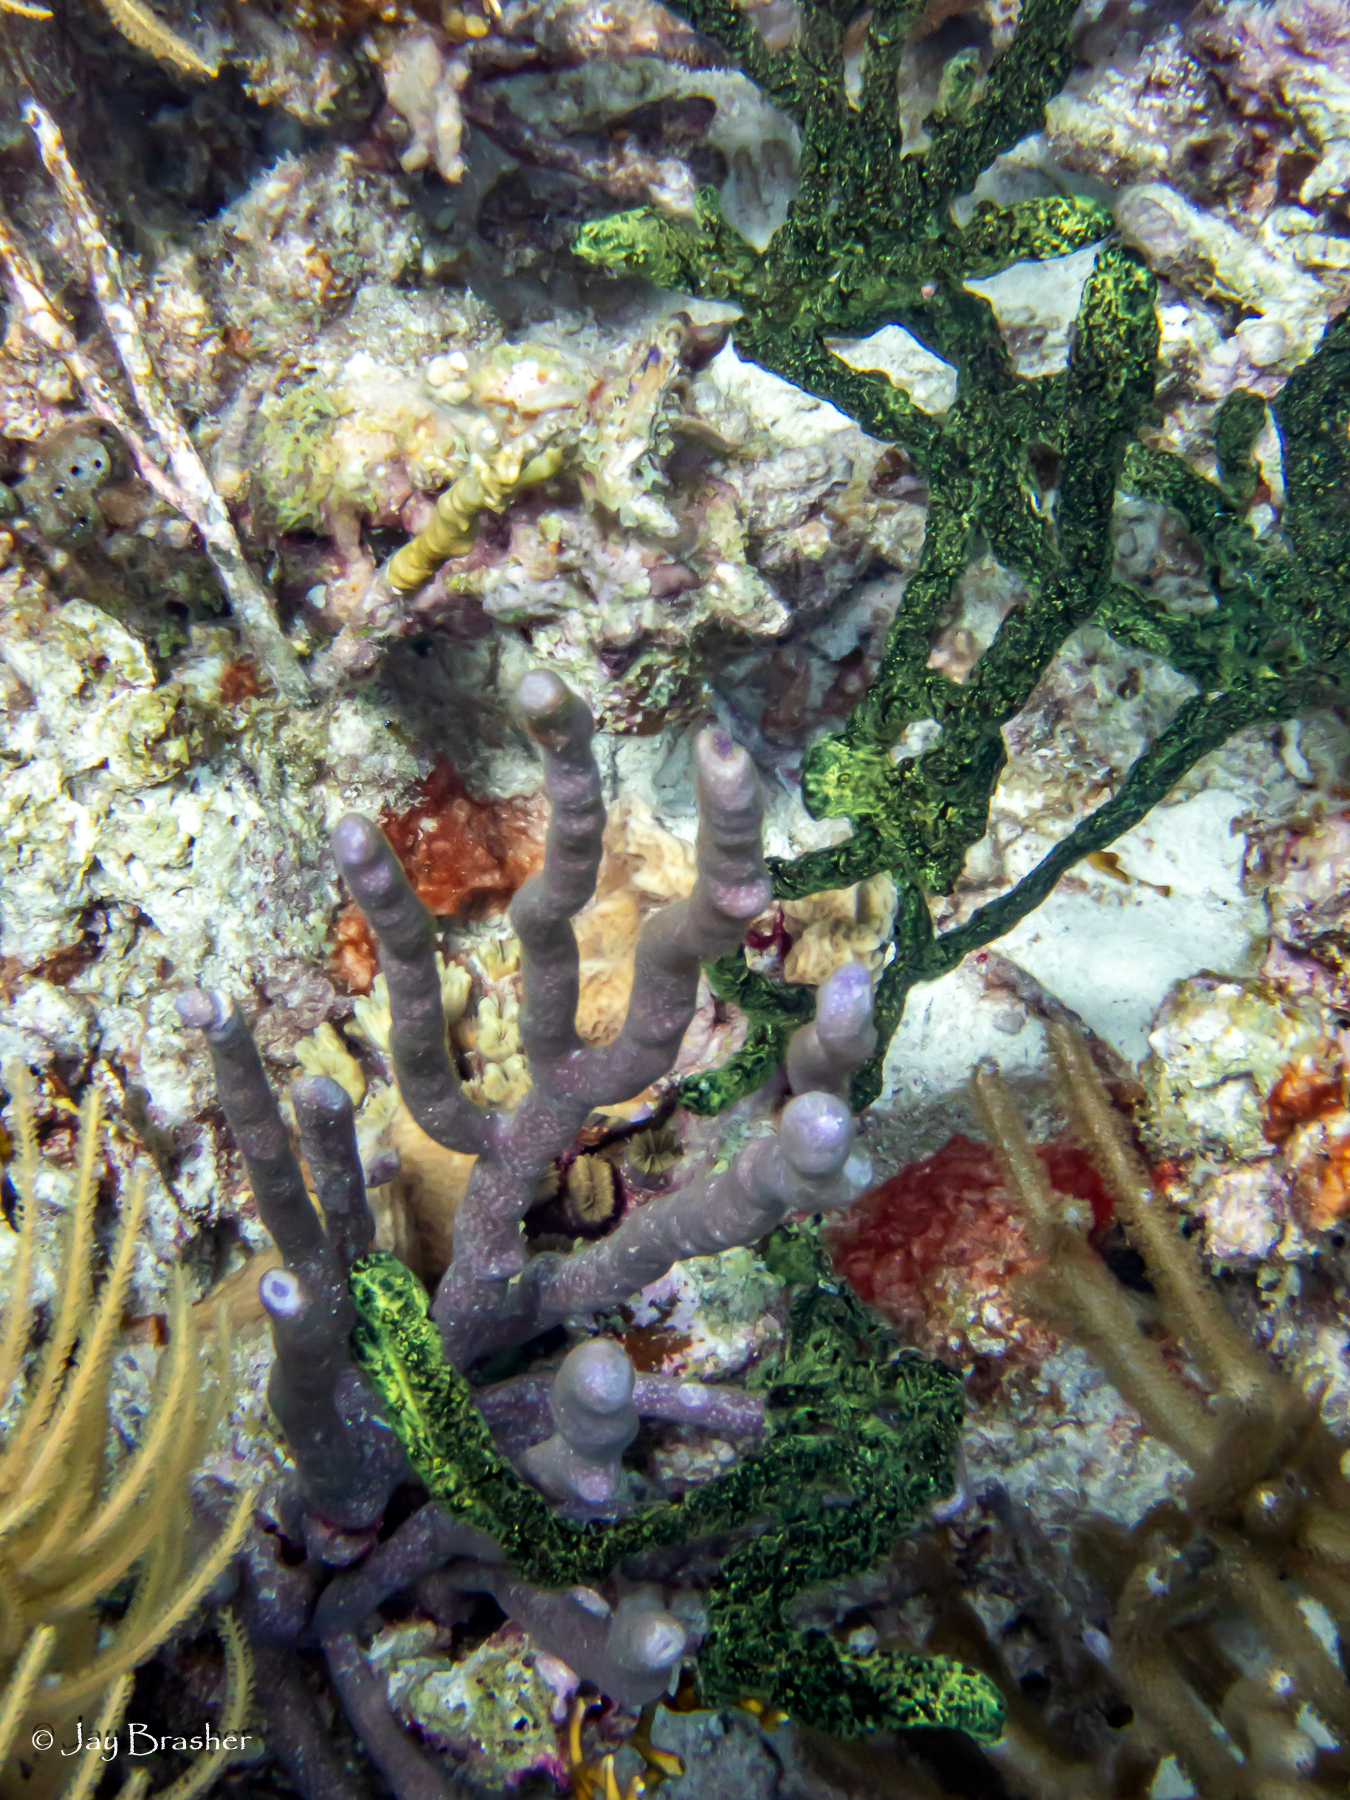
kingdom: Animalia
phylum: Porifera
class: Demospongiae
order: Poecilosclerida
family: Iotrochotidae
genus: Iotrochota
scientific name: Iotrochota birotulata
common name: Purple bleeding sponge
